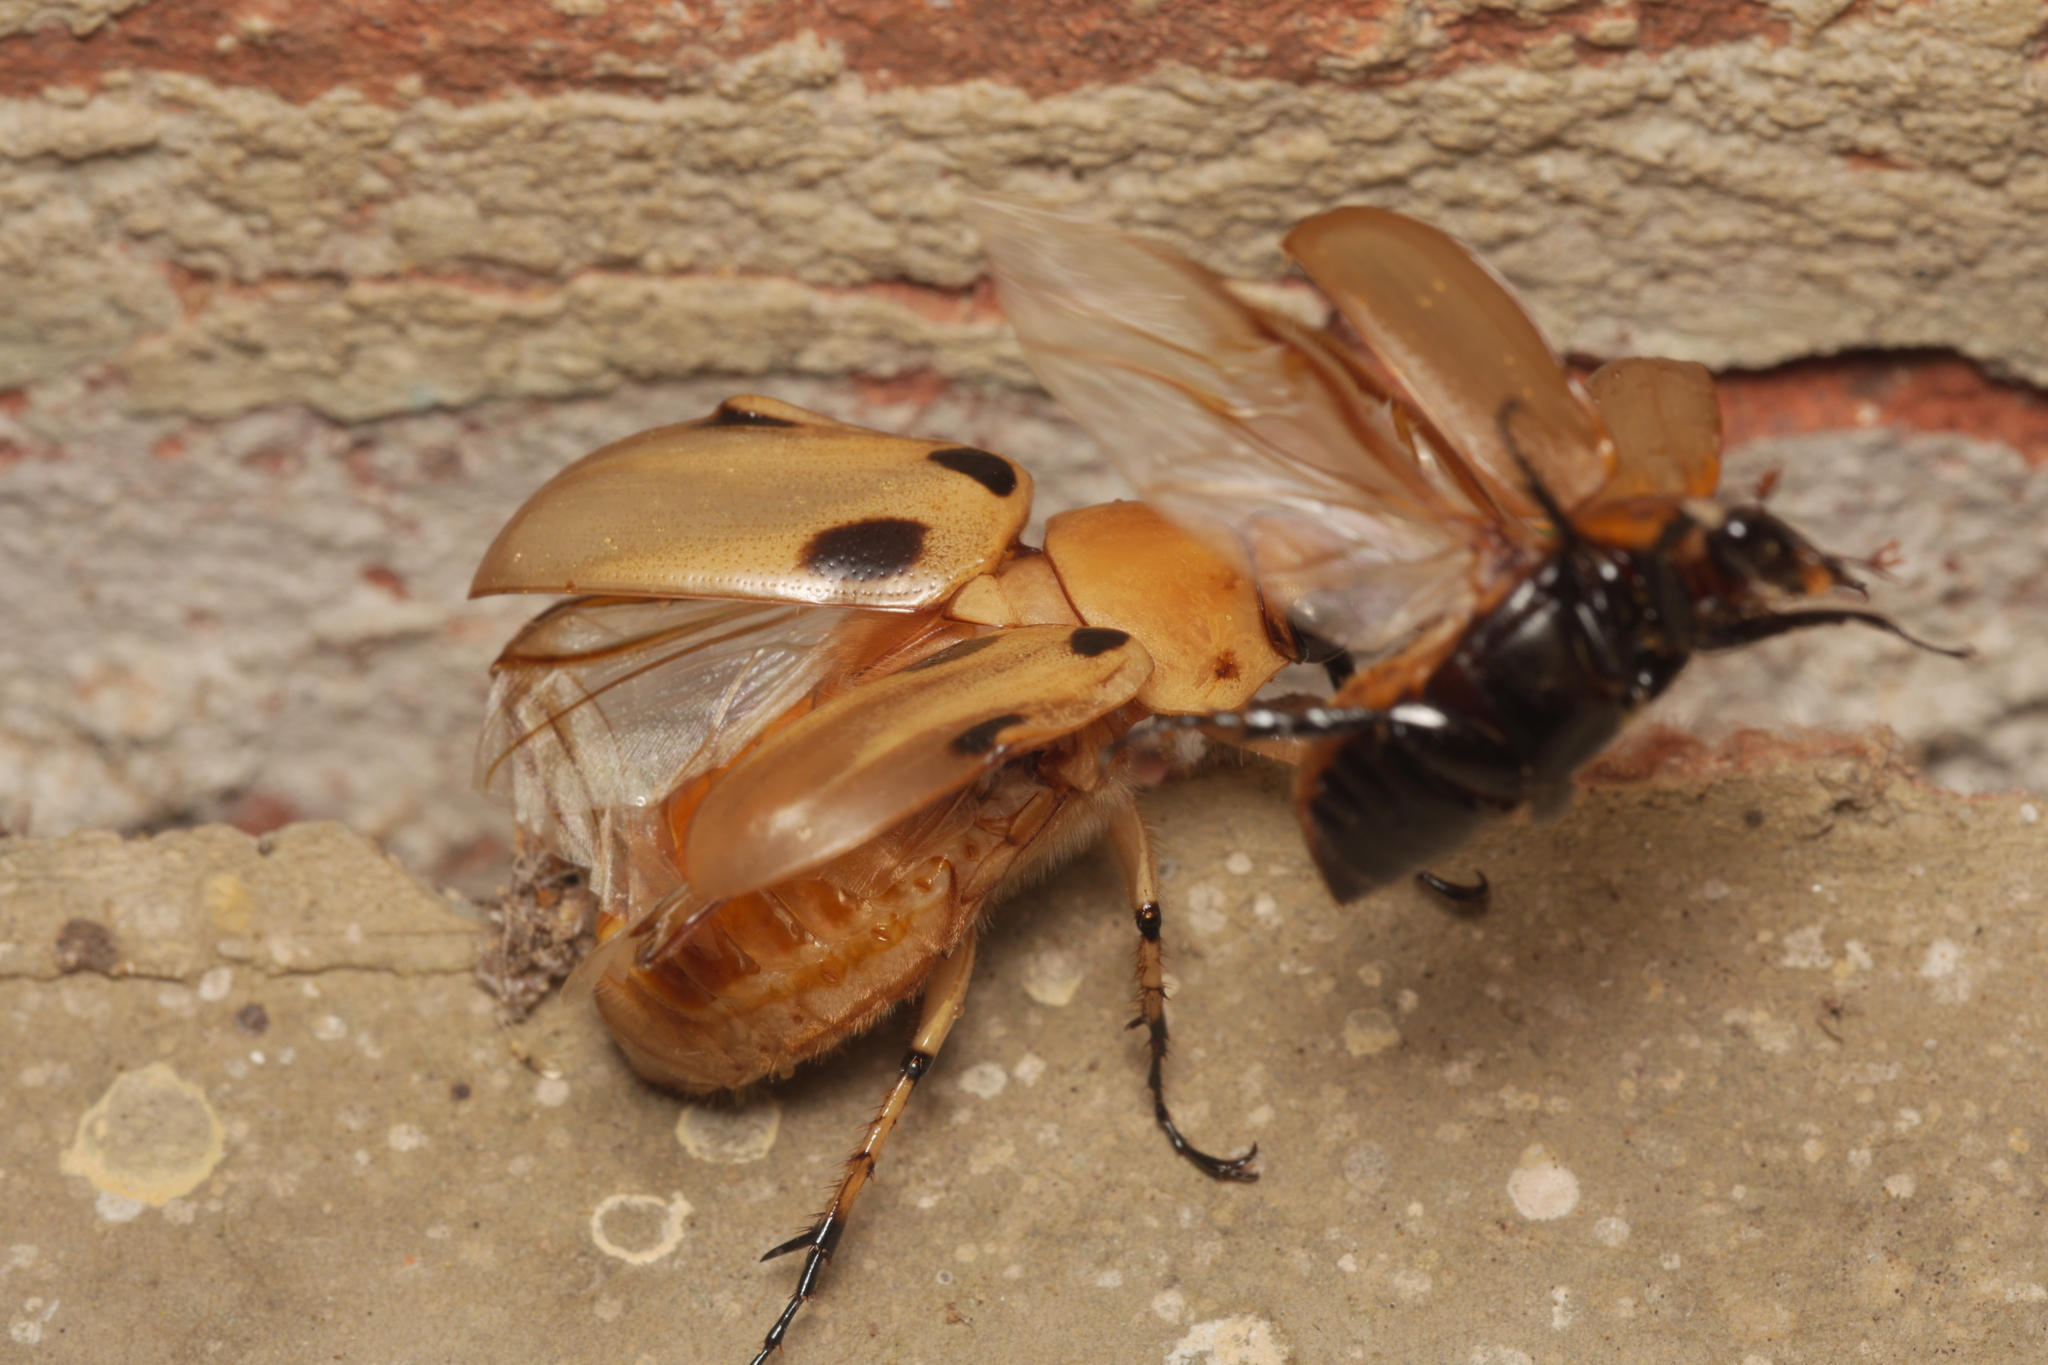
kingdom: Animalia
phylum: Arthropoda
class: Insecta
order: Coleoptera
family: Scarabaeidae
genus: Ancognatha
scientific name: Ancognatha vulgaris
